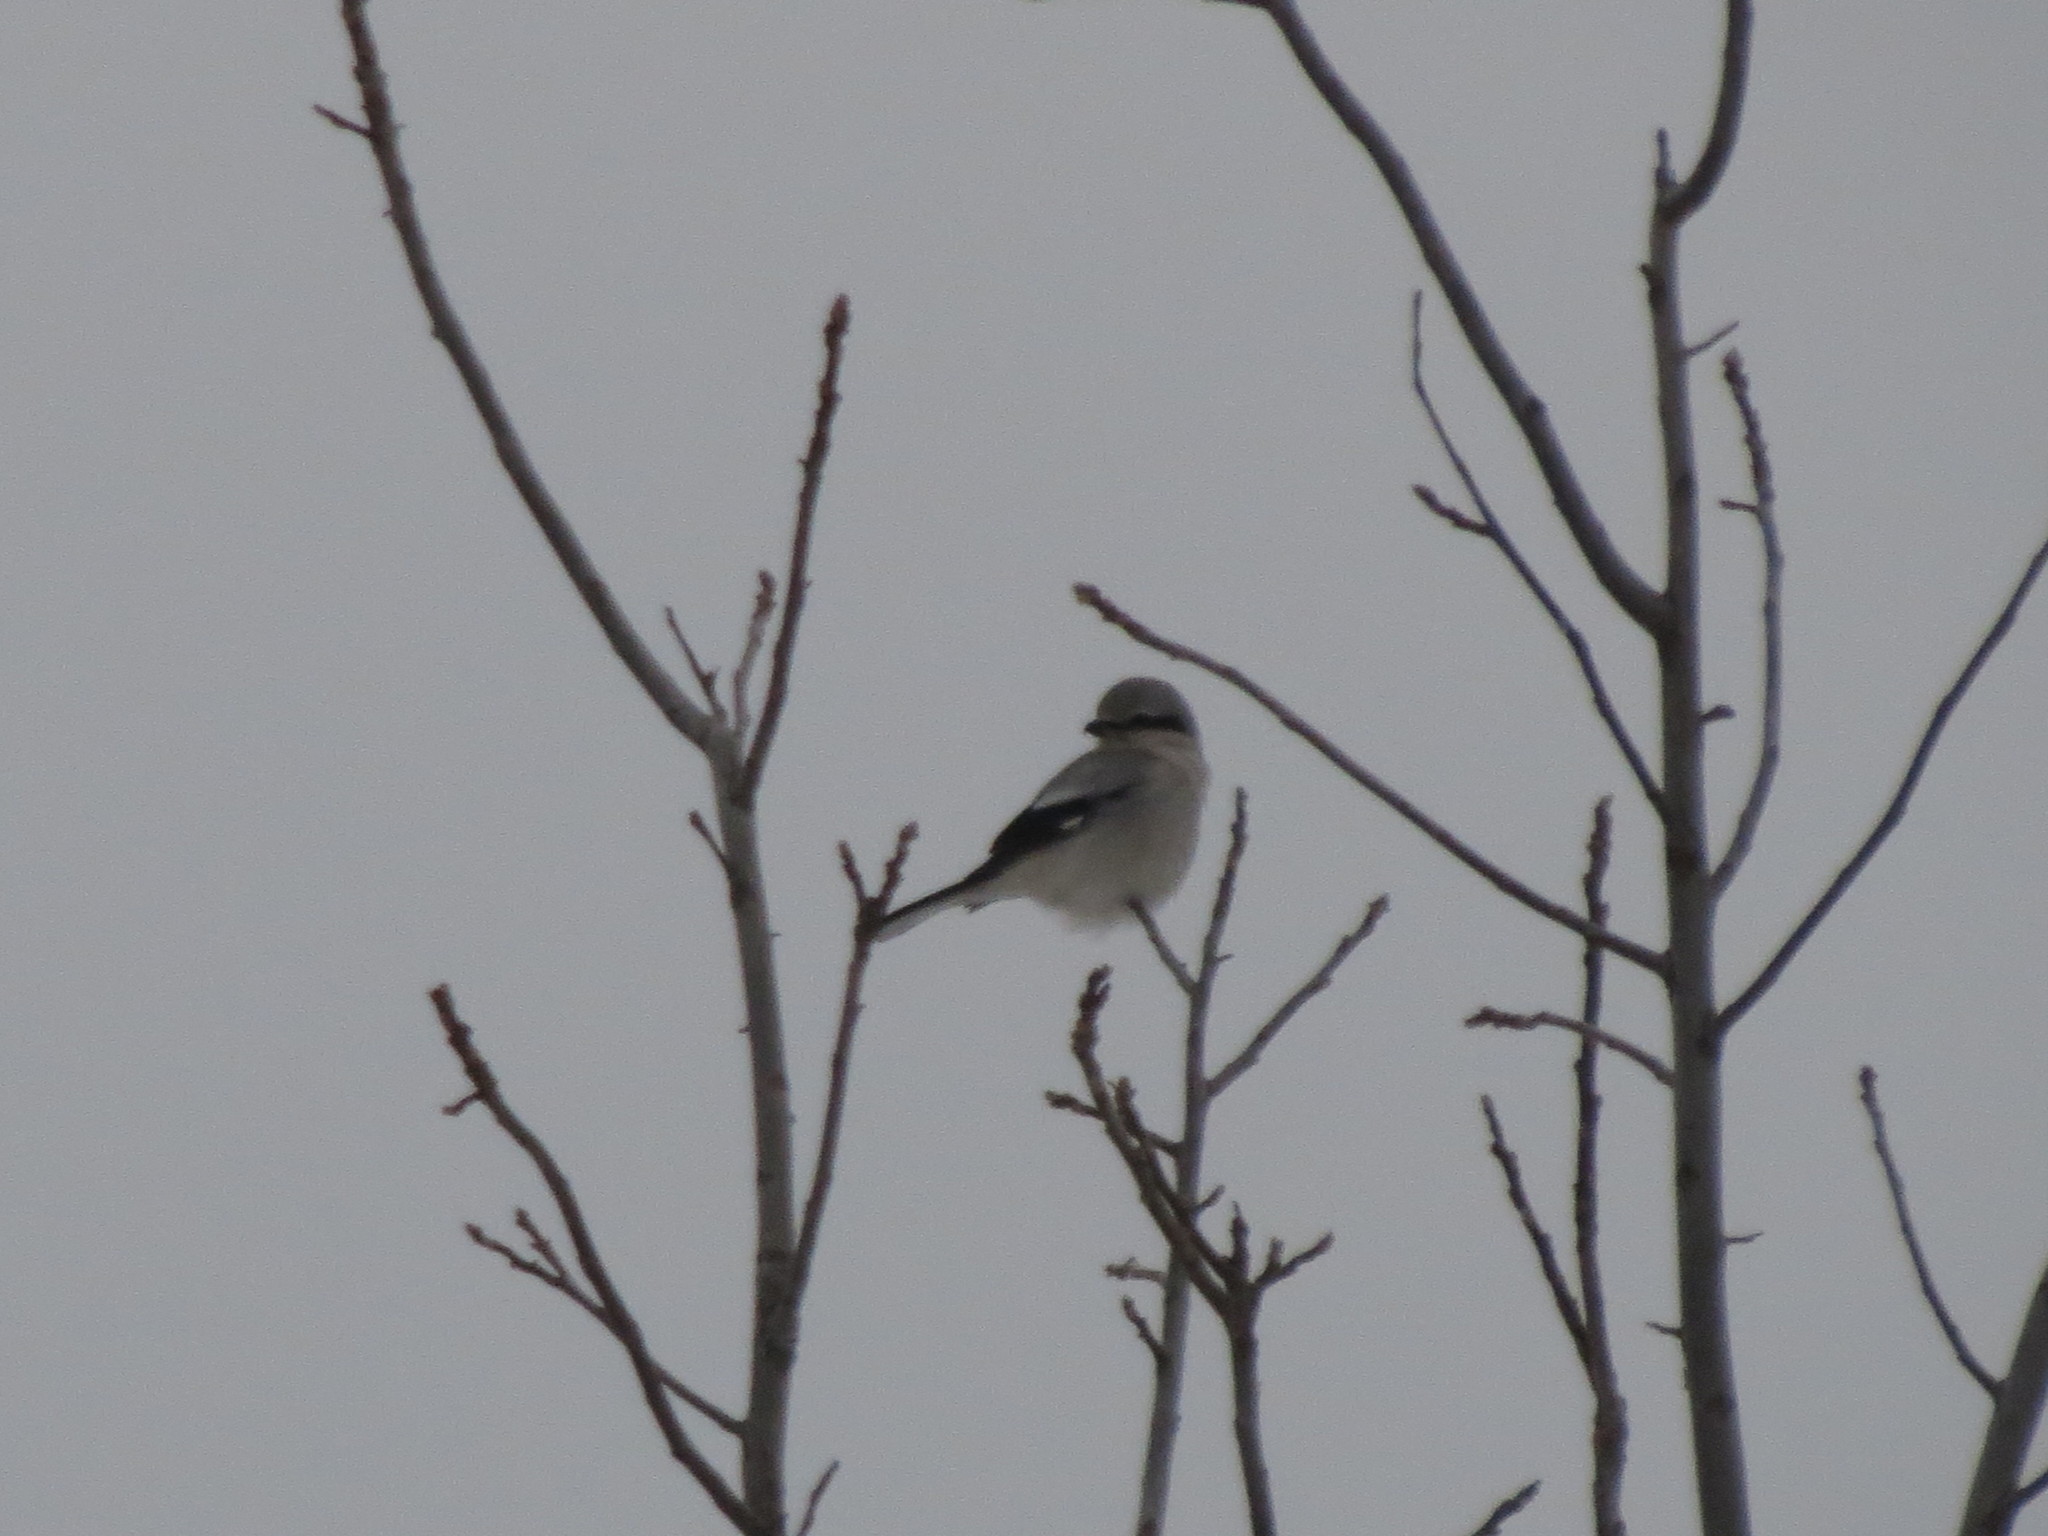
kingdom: Animalia
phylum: Chordata
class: Aves
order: Passeriformes
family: Laniidae
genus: Lanius
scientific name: Lanius borealis
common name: Northern shrike
